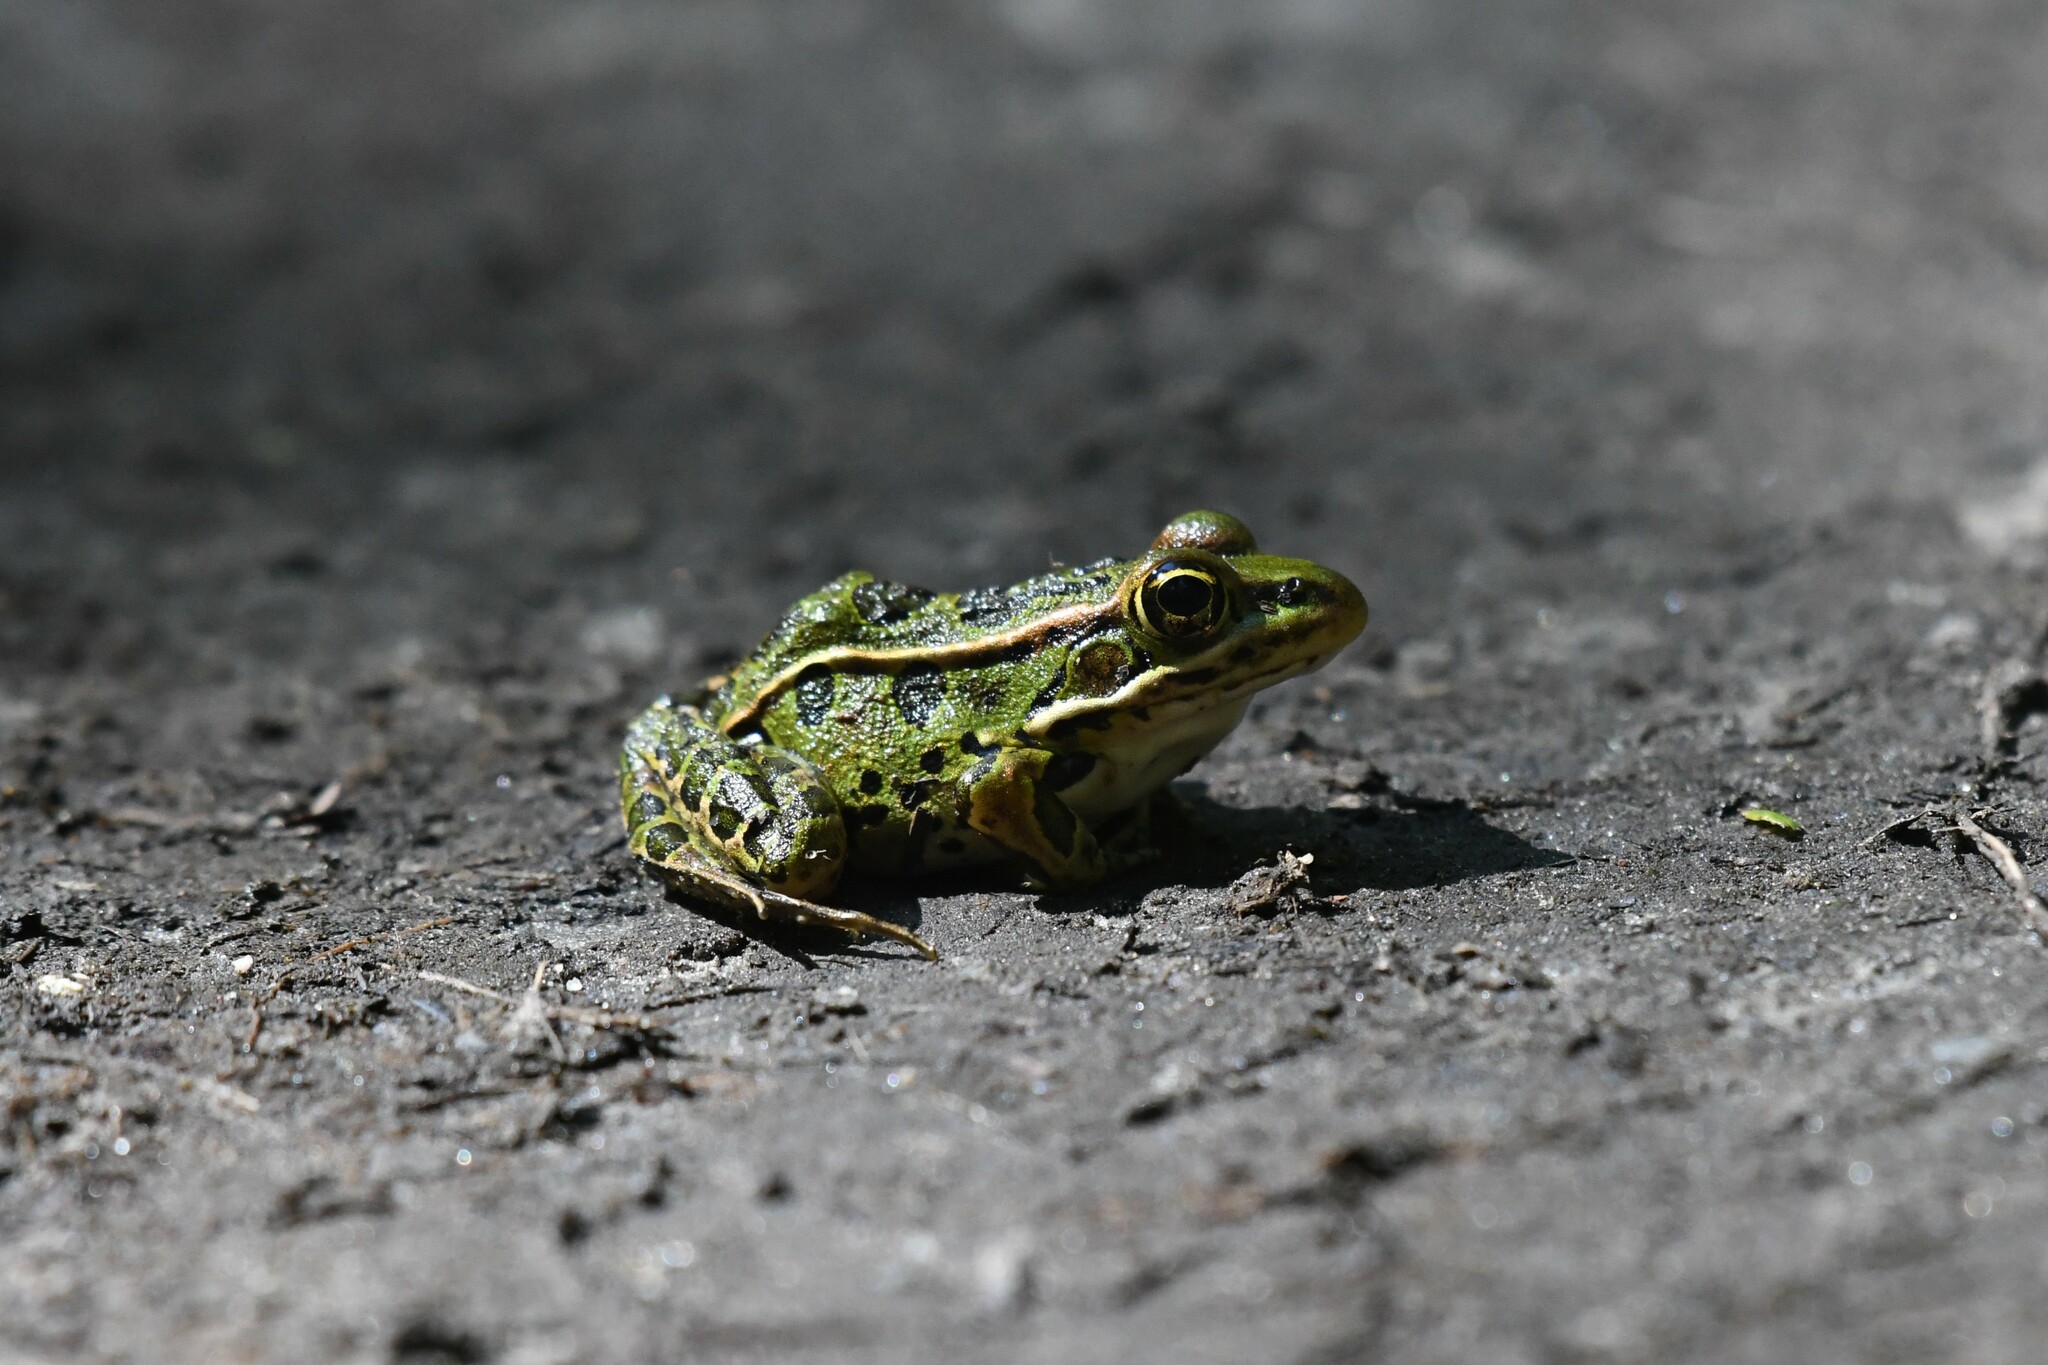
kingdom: Animalia
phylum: Chordata
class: Amphibia
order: Anura
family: Ranidae
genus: Lithobates
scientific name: Lithobates pipiens
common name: Northern leopard frog
